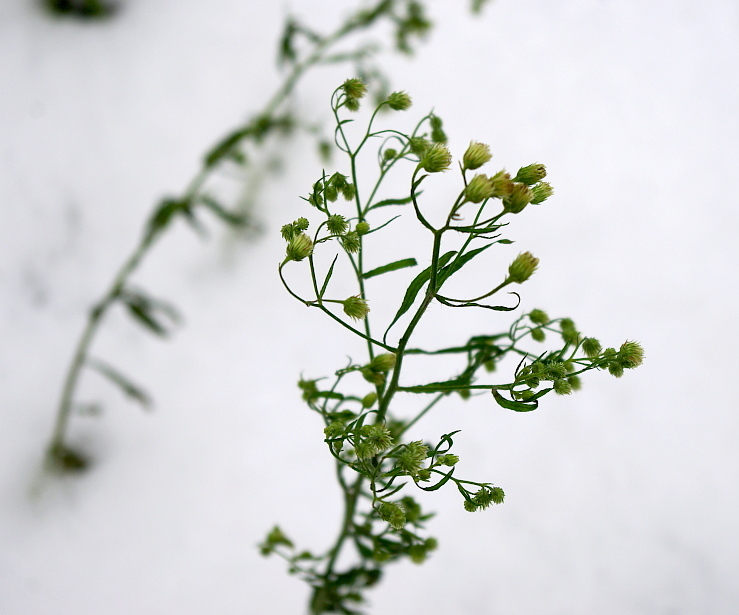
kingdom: Plantae
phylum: Tracheophyta
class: Magnoliopsida
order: Asterales
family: Asteraceae
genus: Erigeron
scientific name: Erigeron canadensis
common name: Canadian fleabane
